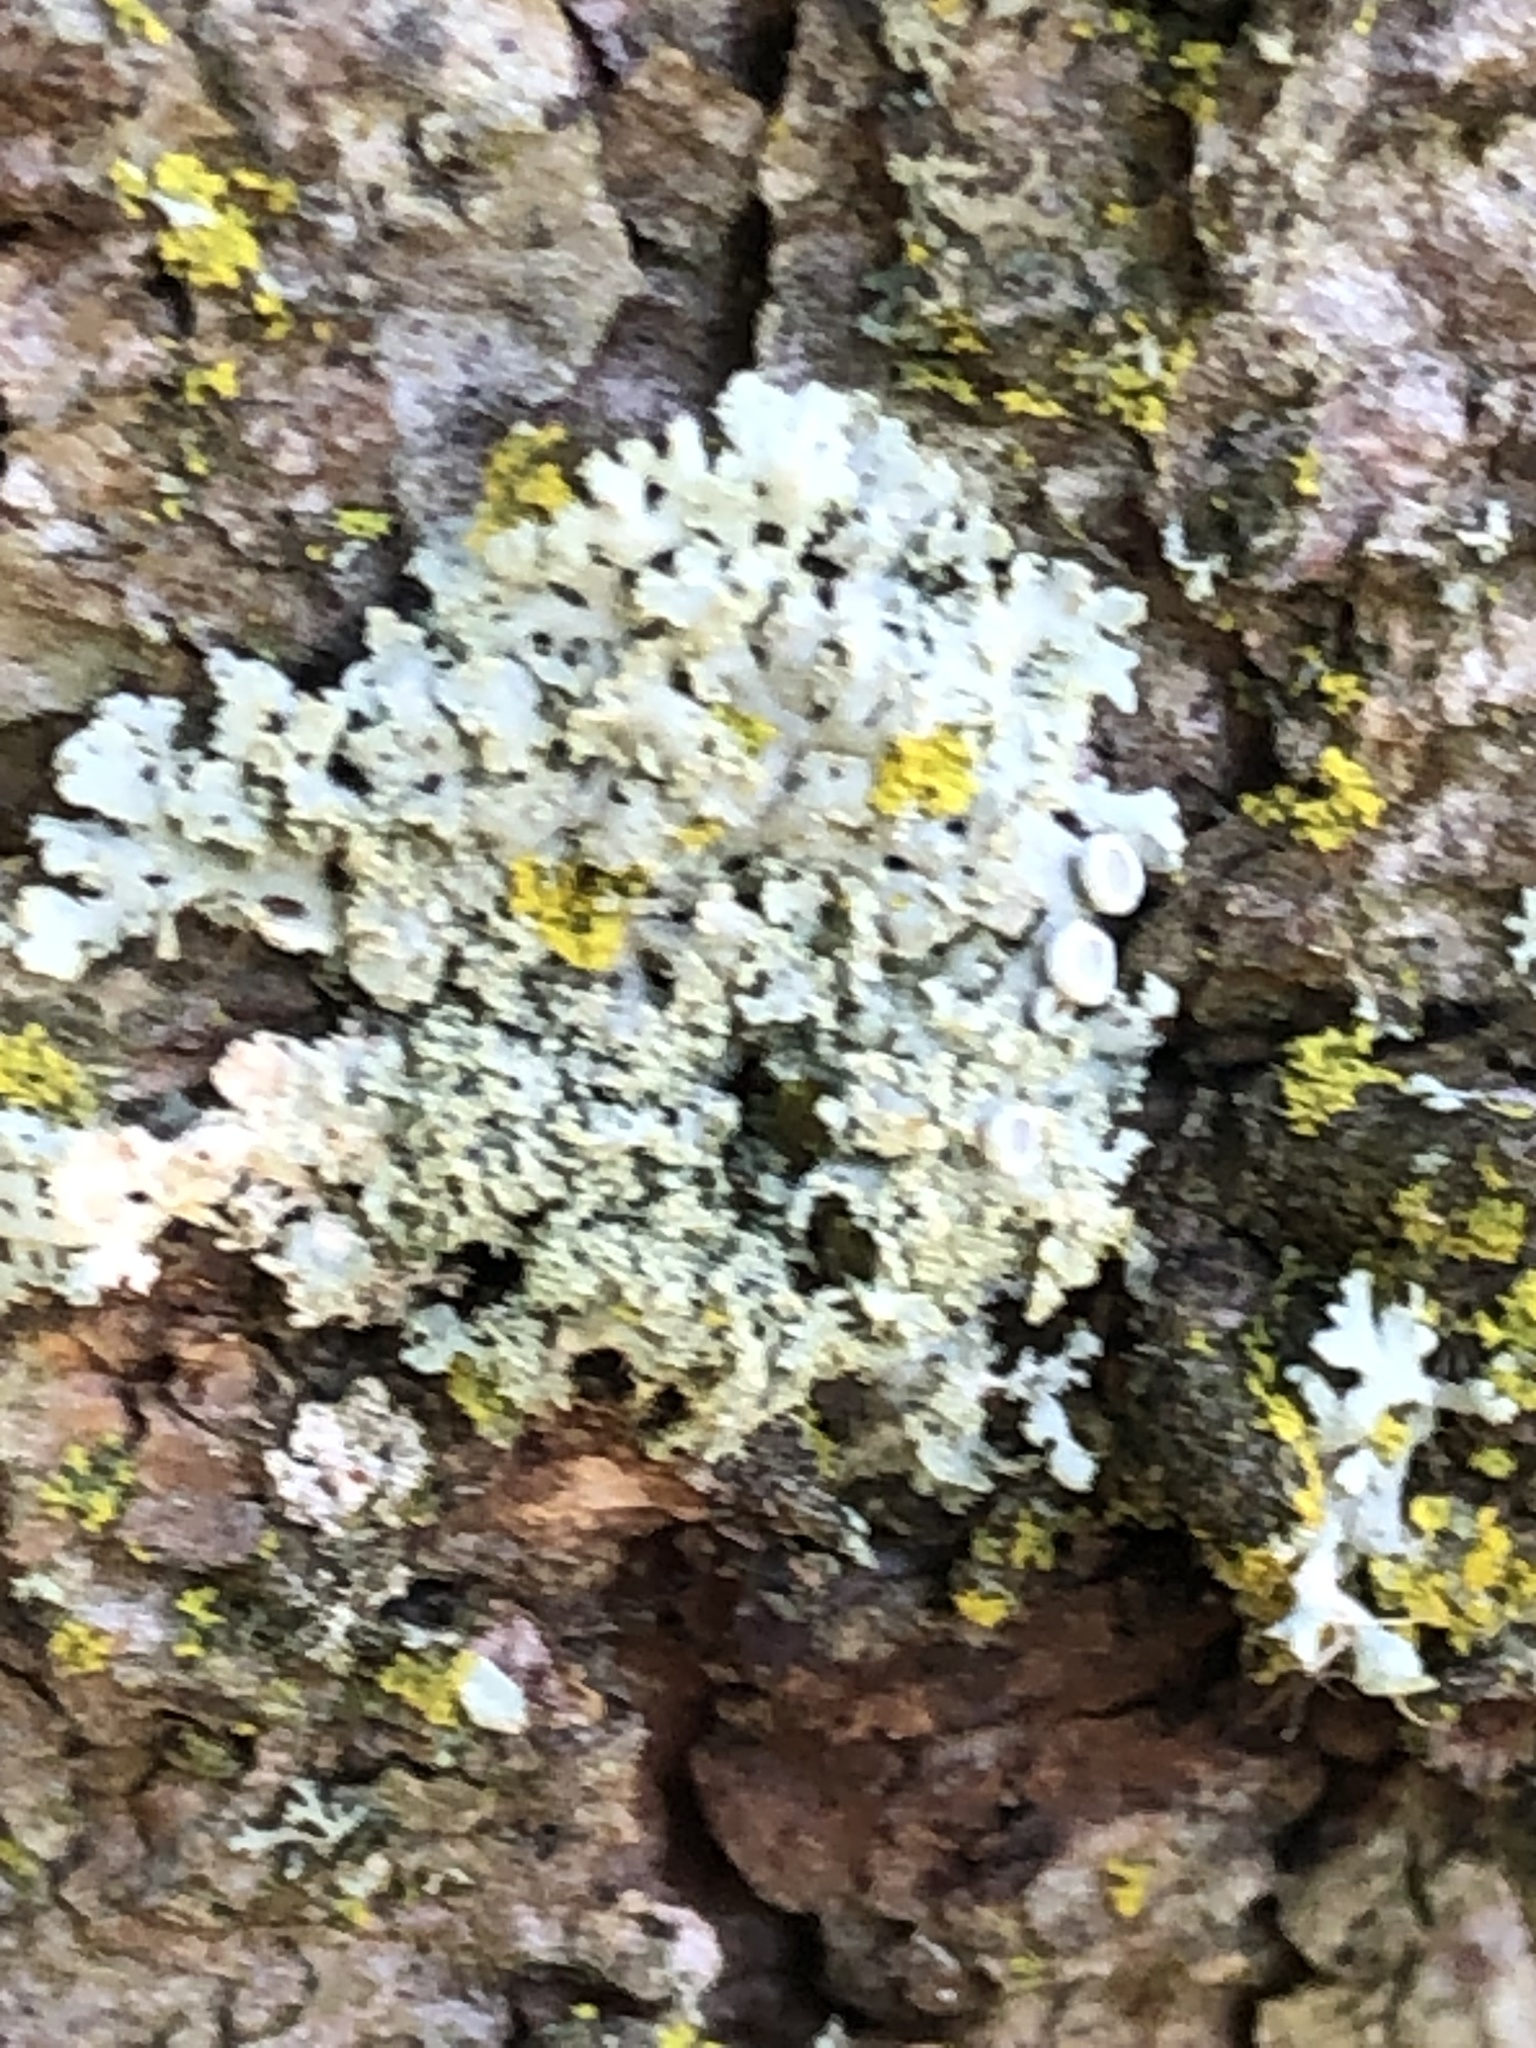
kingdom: Fungi
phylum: Ascomycota
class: Lecanoromycetes
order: Caliciales
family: Physciaceae
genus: Physcia
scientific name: Physcia millegrana
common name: Rosette lichen
